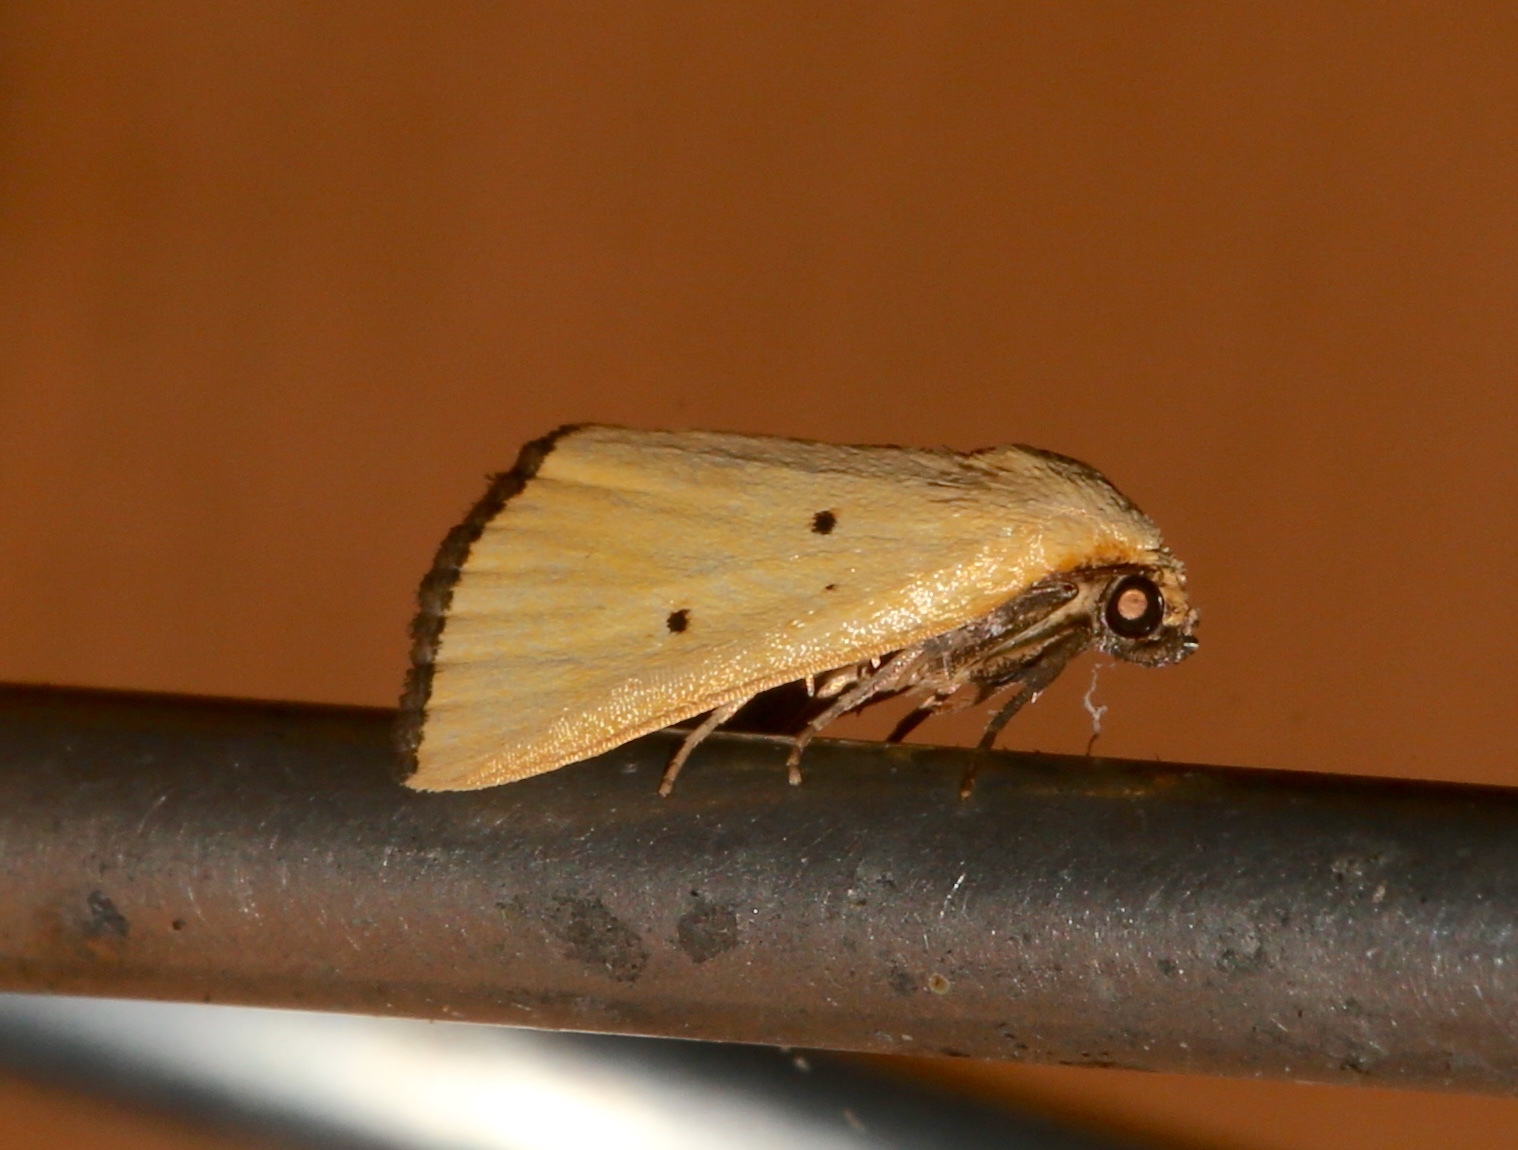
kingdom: Animalia
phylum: Arthropoda
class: Insecta
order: Lepidoptera
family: Noctuidae
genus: Marimatha
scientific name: Marimatha nigrofimbria
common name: Black-bordered lemon moth
